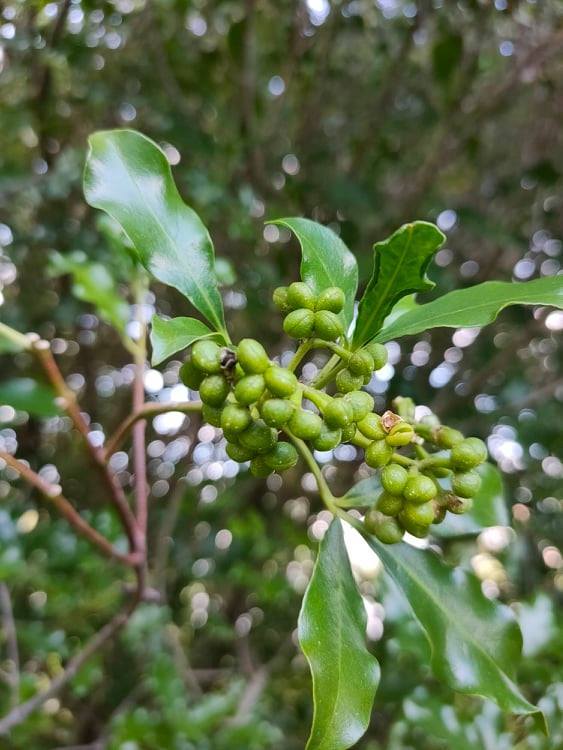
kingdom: Plantae
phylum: Tracheophyta
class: Magnoliopsida
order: Sapindales
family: Rutaceae
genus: Melicope
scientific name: Melicope ternata
